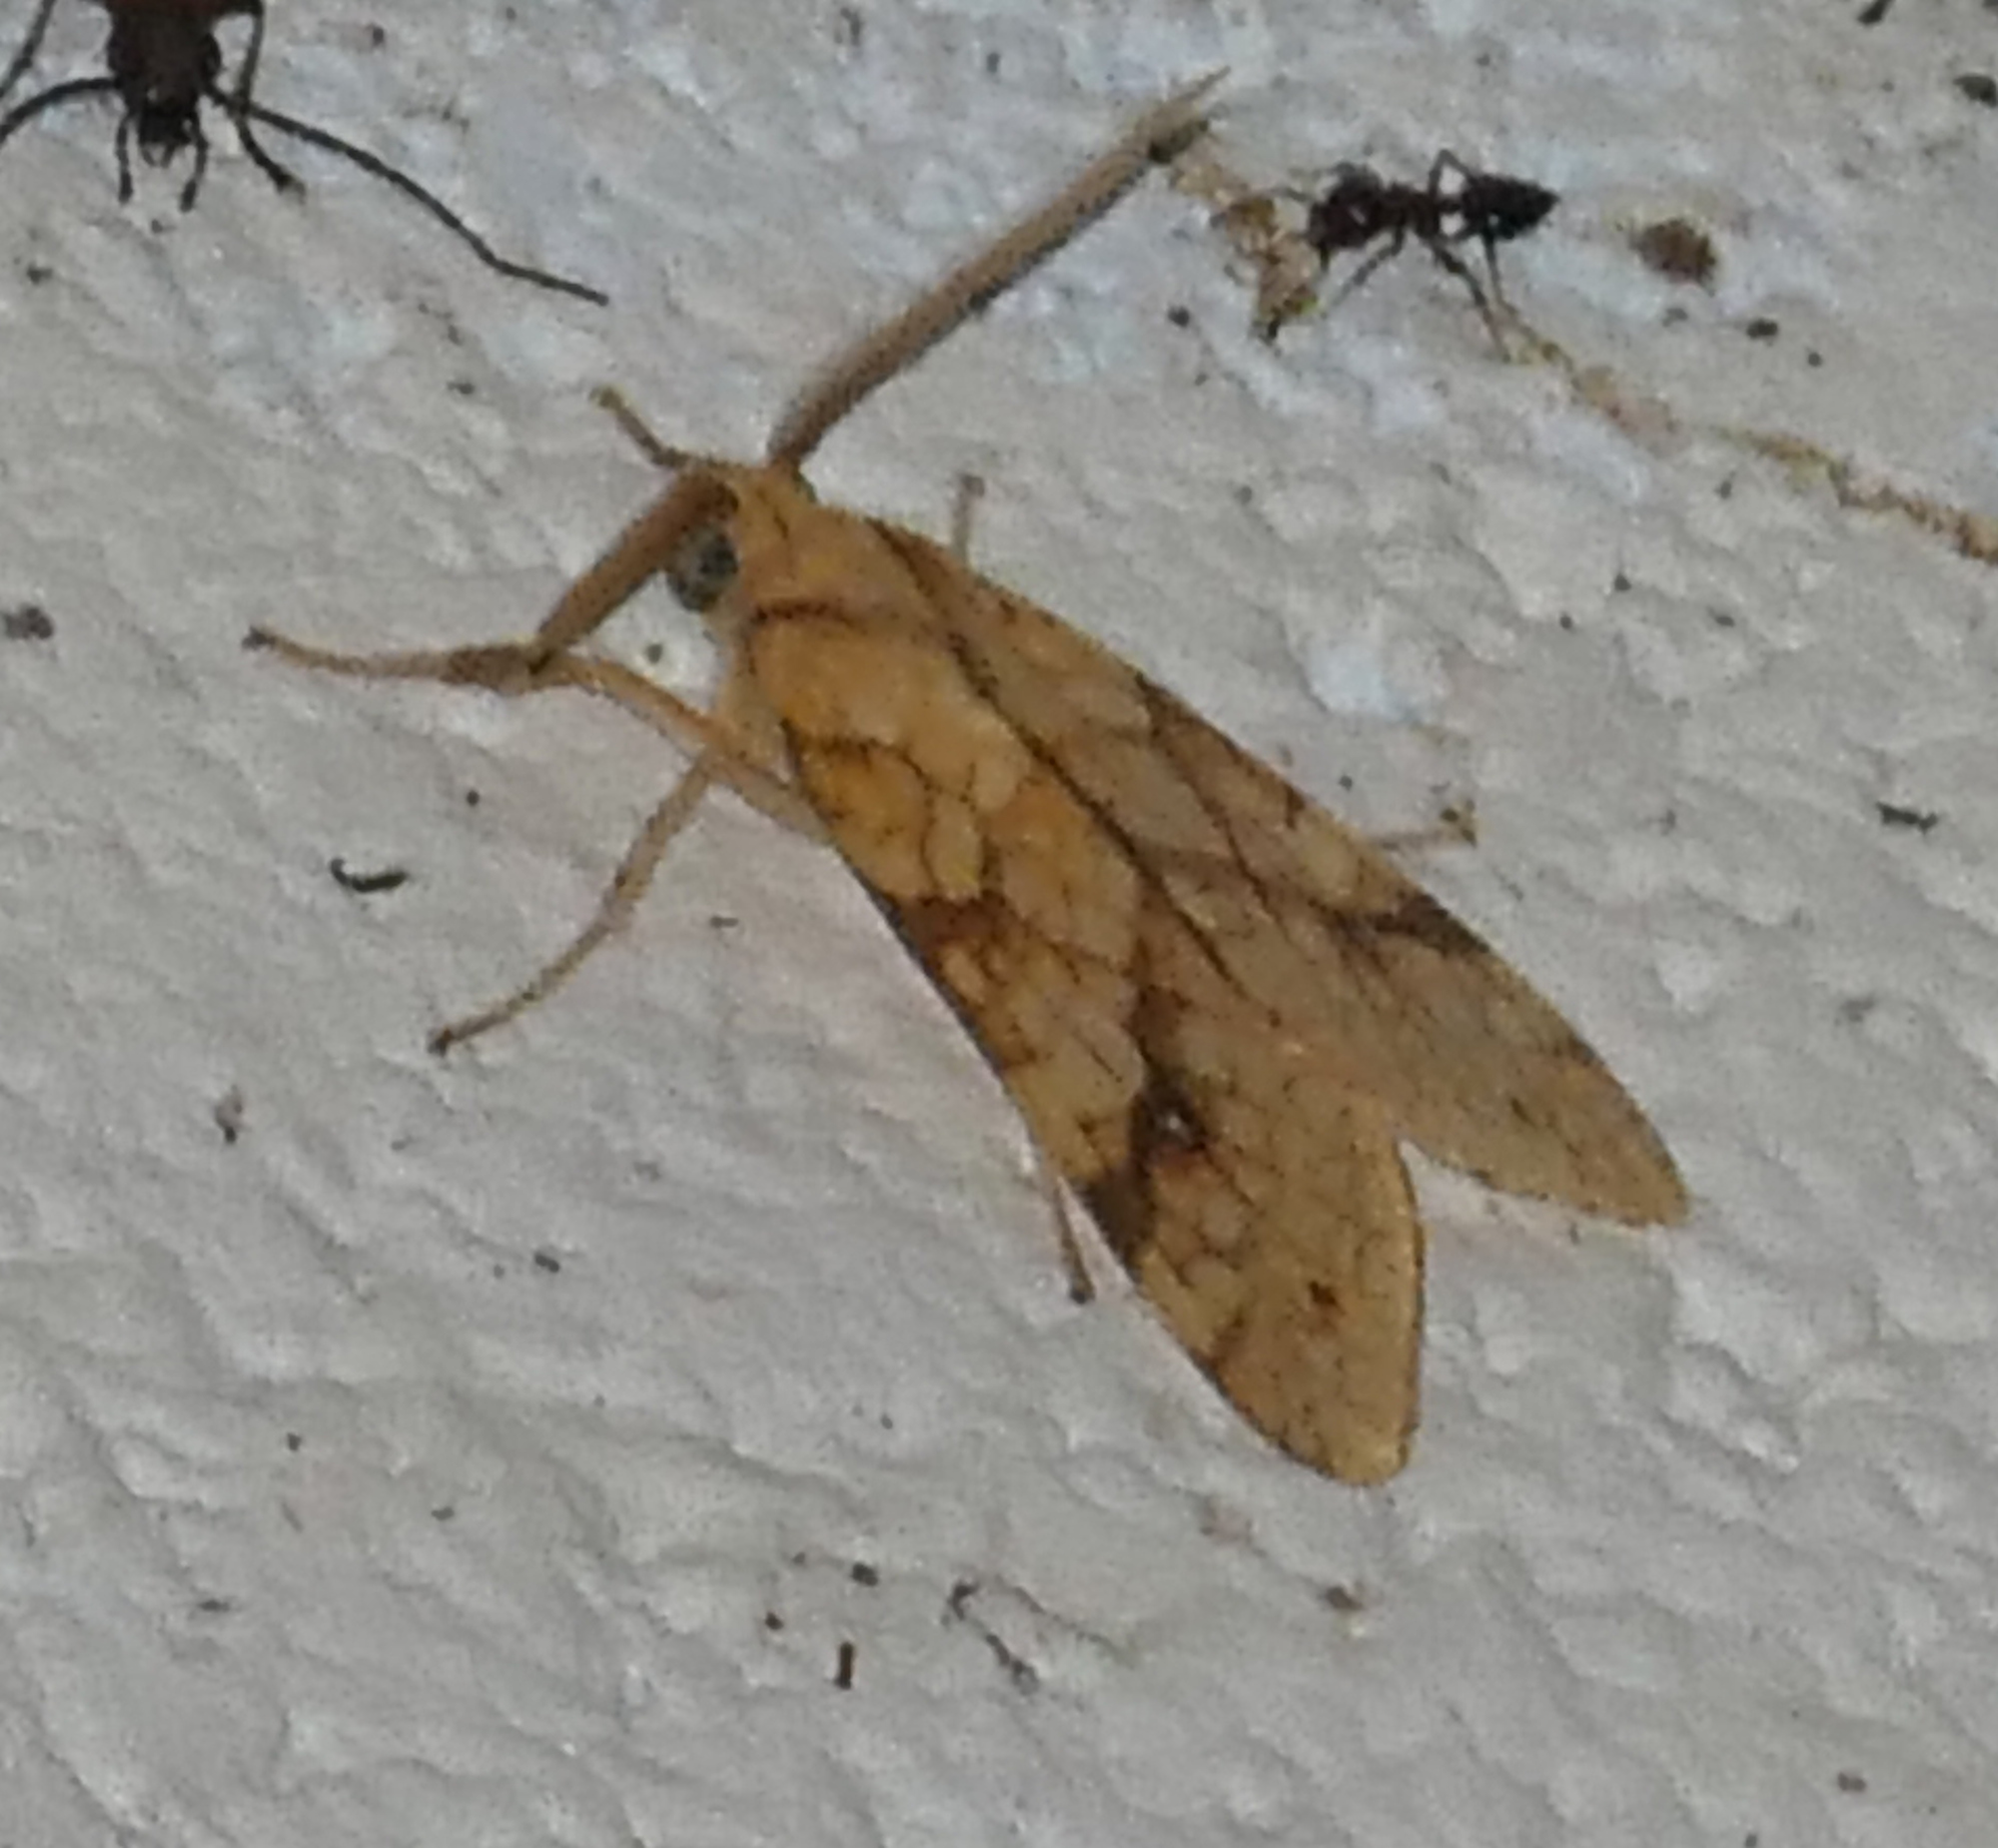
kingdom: Animalia
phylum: Arthropoda
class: Insecta
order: Lepidoptera
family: Erebidae
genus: Lophocampa
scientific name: Lophocampa annulosa
